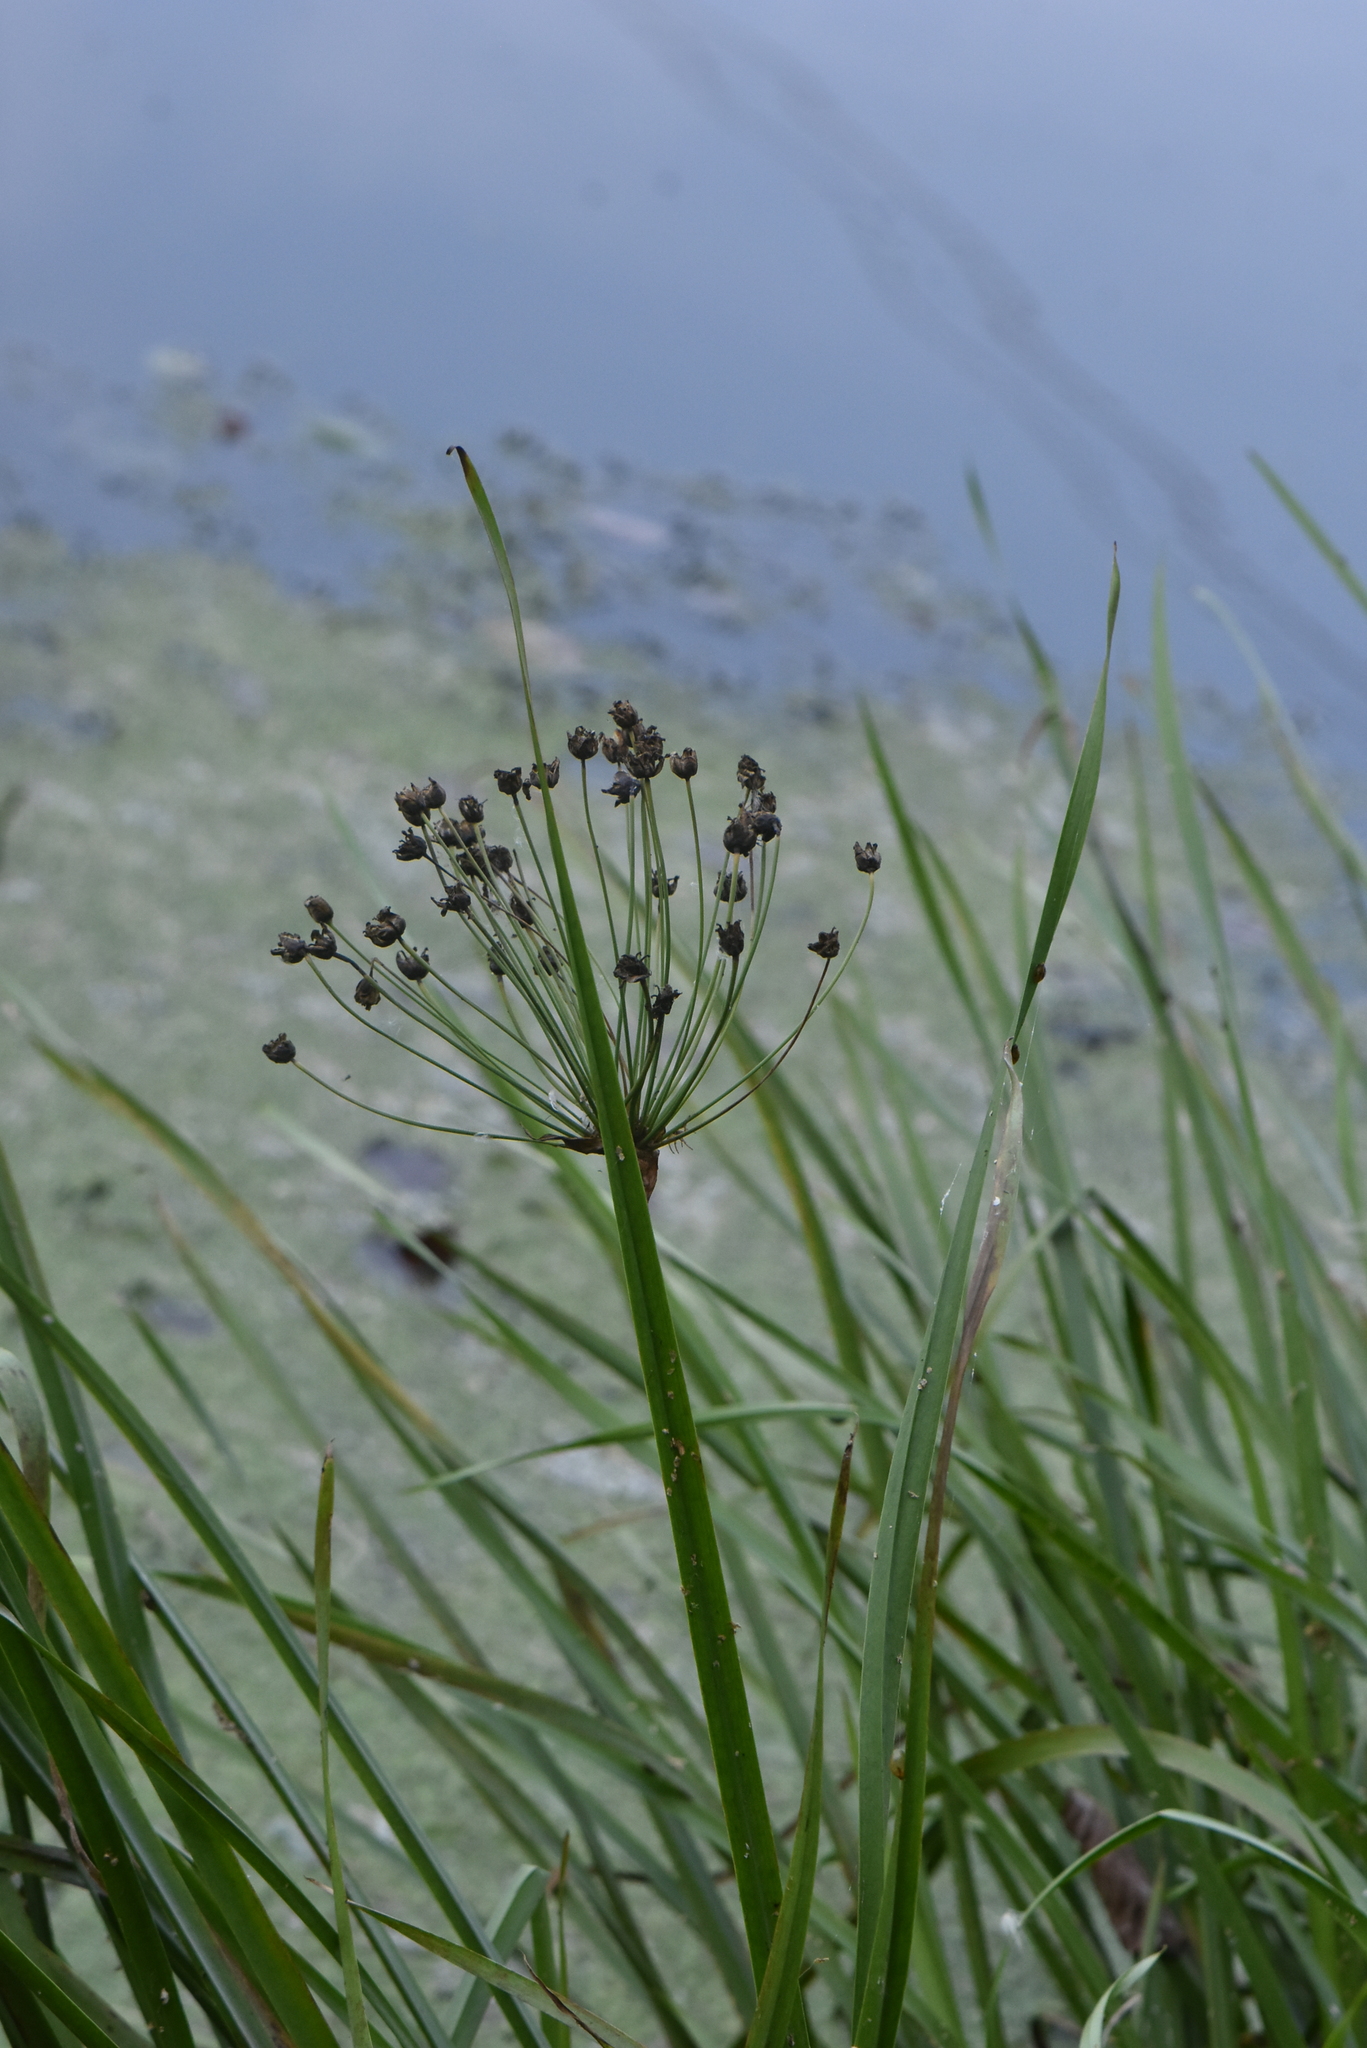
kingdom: Plantae
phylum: Tracheophyta
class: Liliopsida
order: Alismatales
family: Butomaceae
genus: Butomus
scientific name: Butomus umbellatus
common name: Flowering-rush
